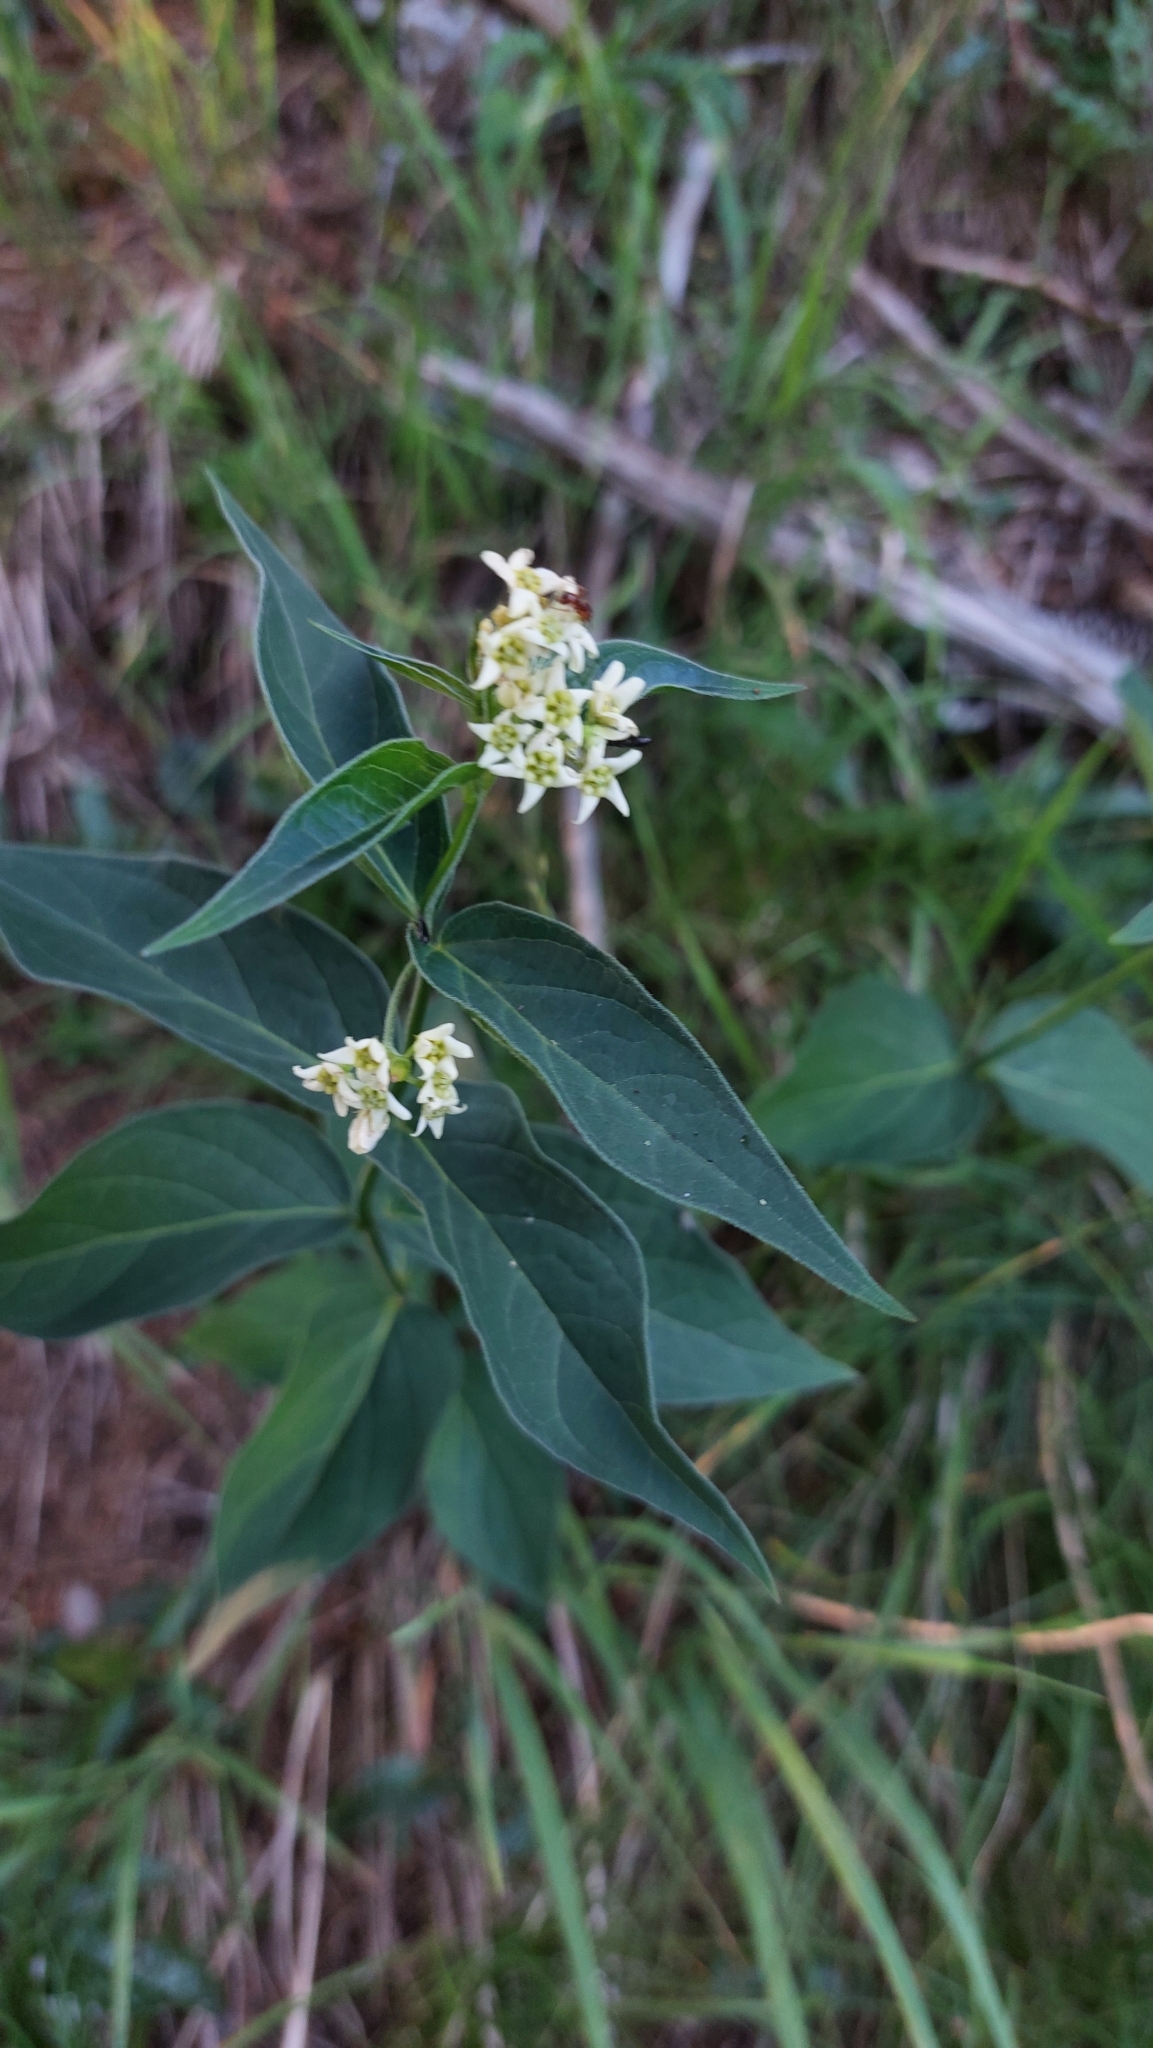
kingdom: Plantae
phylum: Tracheophyta
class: Magnoliopsida
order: Gentianales
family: Apocynaceae
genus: Vincetoxicum
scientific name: Vincetoxicum hirundinaria
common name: White swallowwort
